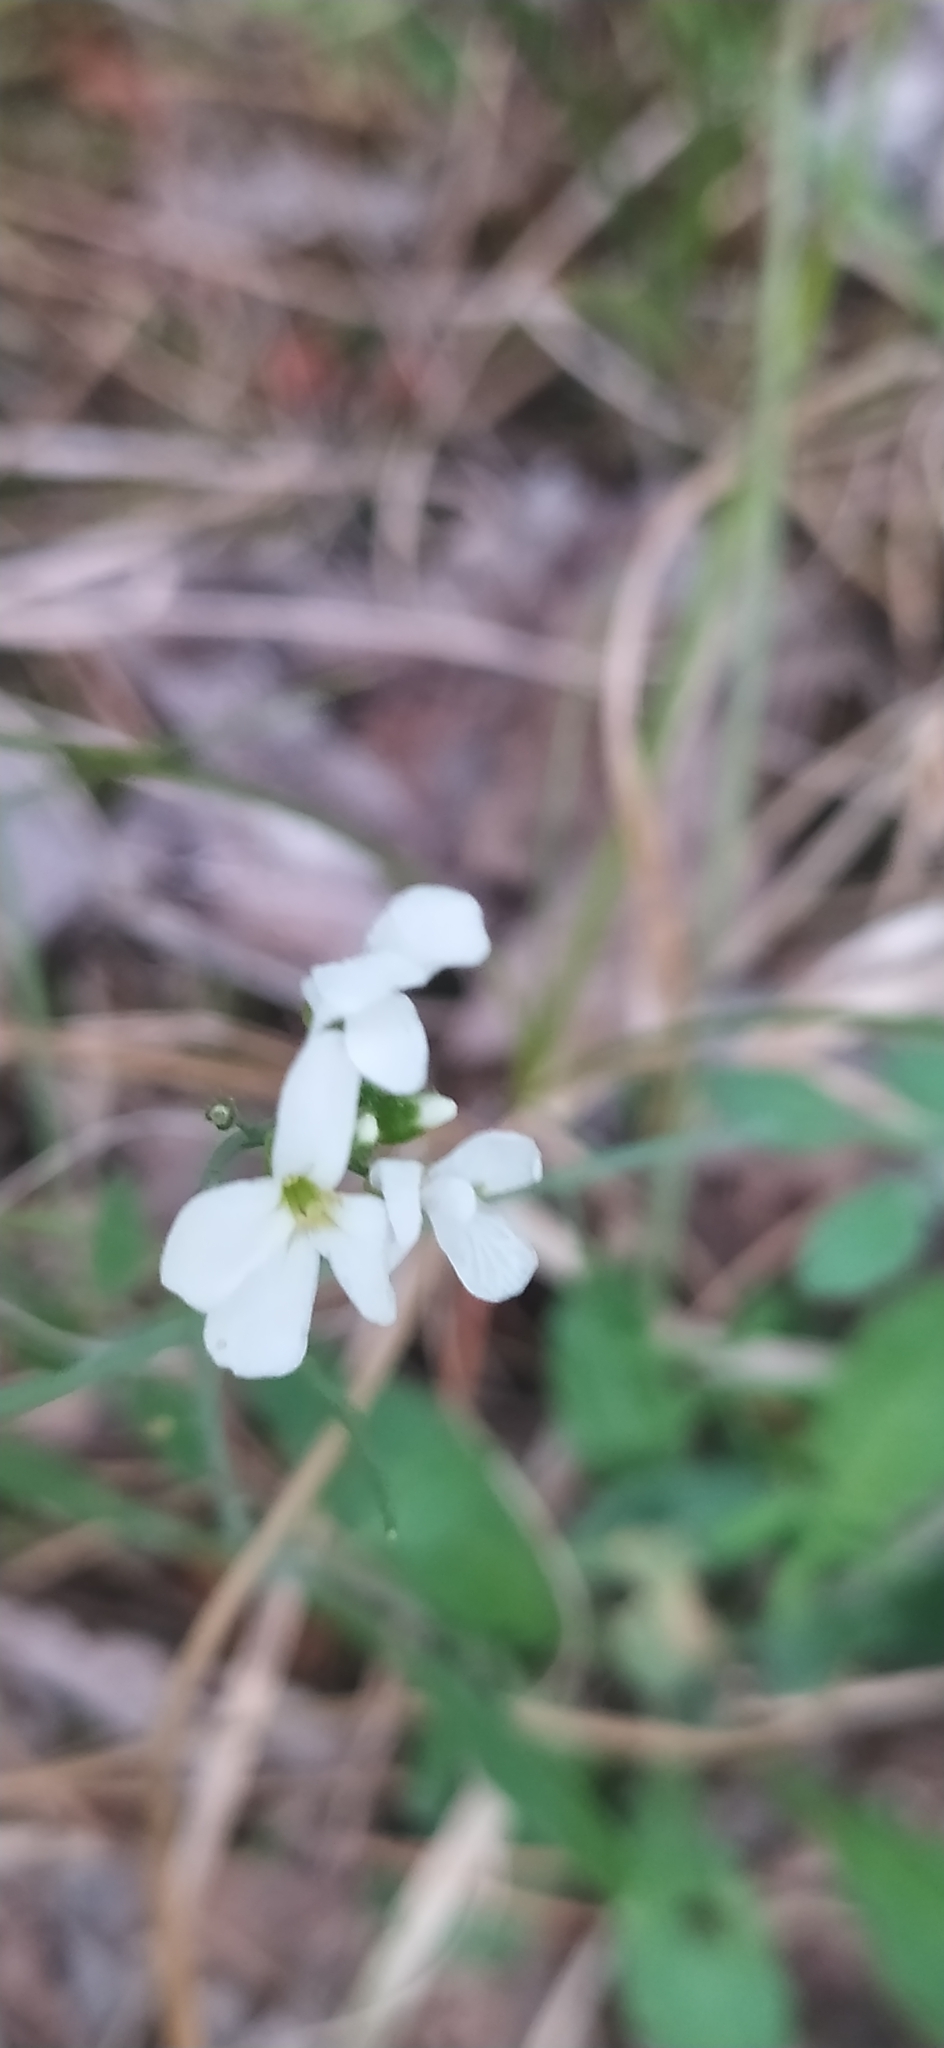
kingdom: Plantae
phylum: Tracheophyta
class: Magnoliopsida
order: Brassicales
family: Brassicaceae
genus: Arabidopsis
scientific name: Arabidopsis arenosa
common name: Sand rock-cress
